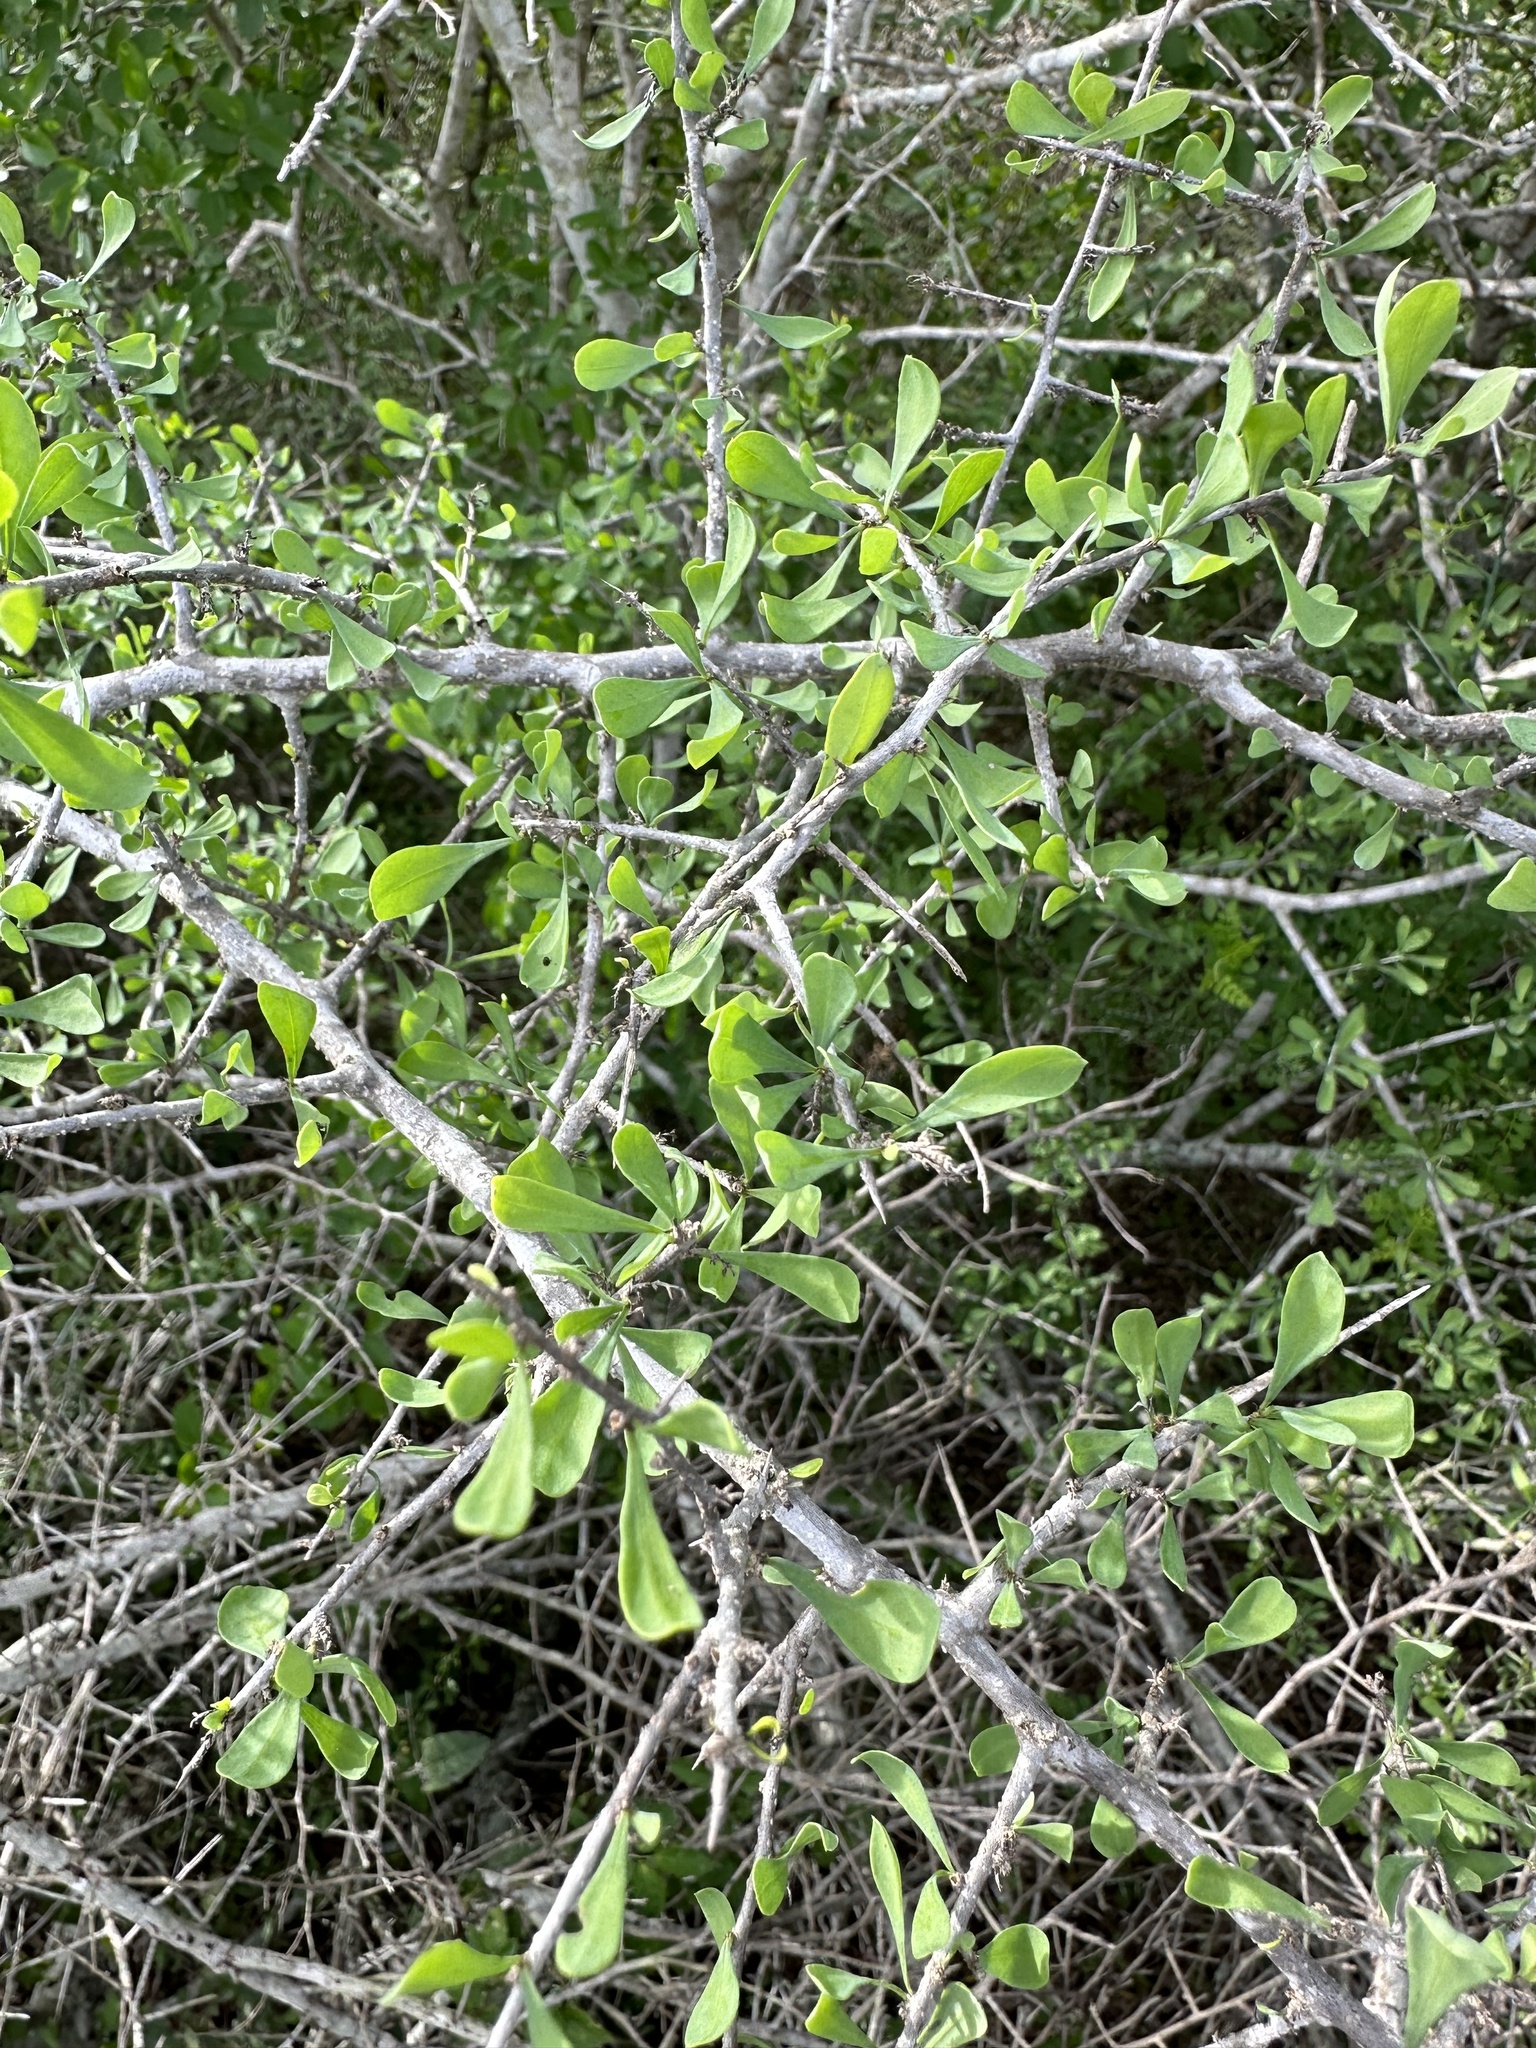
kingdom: Plantae
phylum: Tracheophyta
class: Magnoliopsida
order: Rosales
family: Cannabaceae
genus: Celtis
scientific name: Celtis pallida
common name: Desert hackberry
